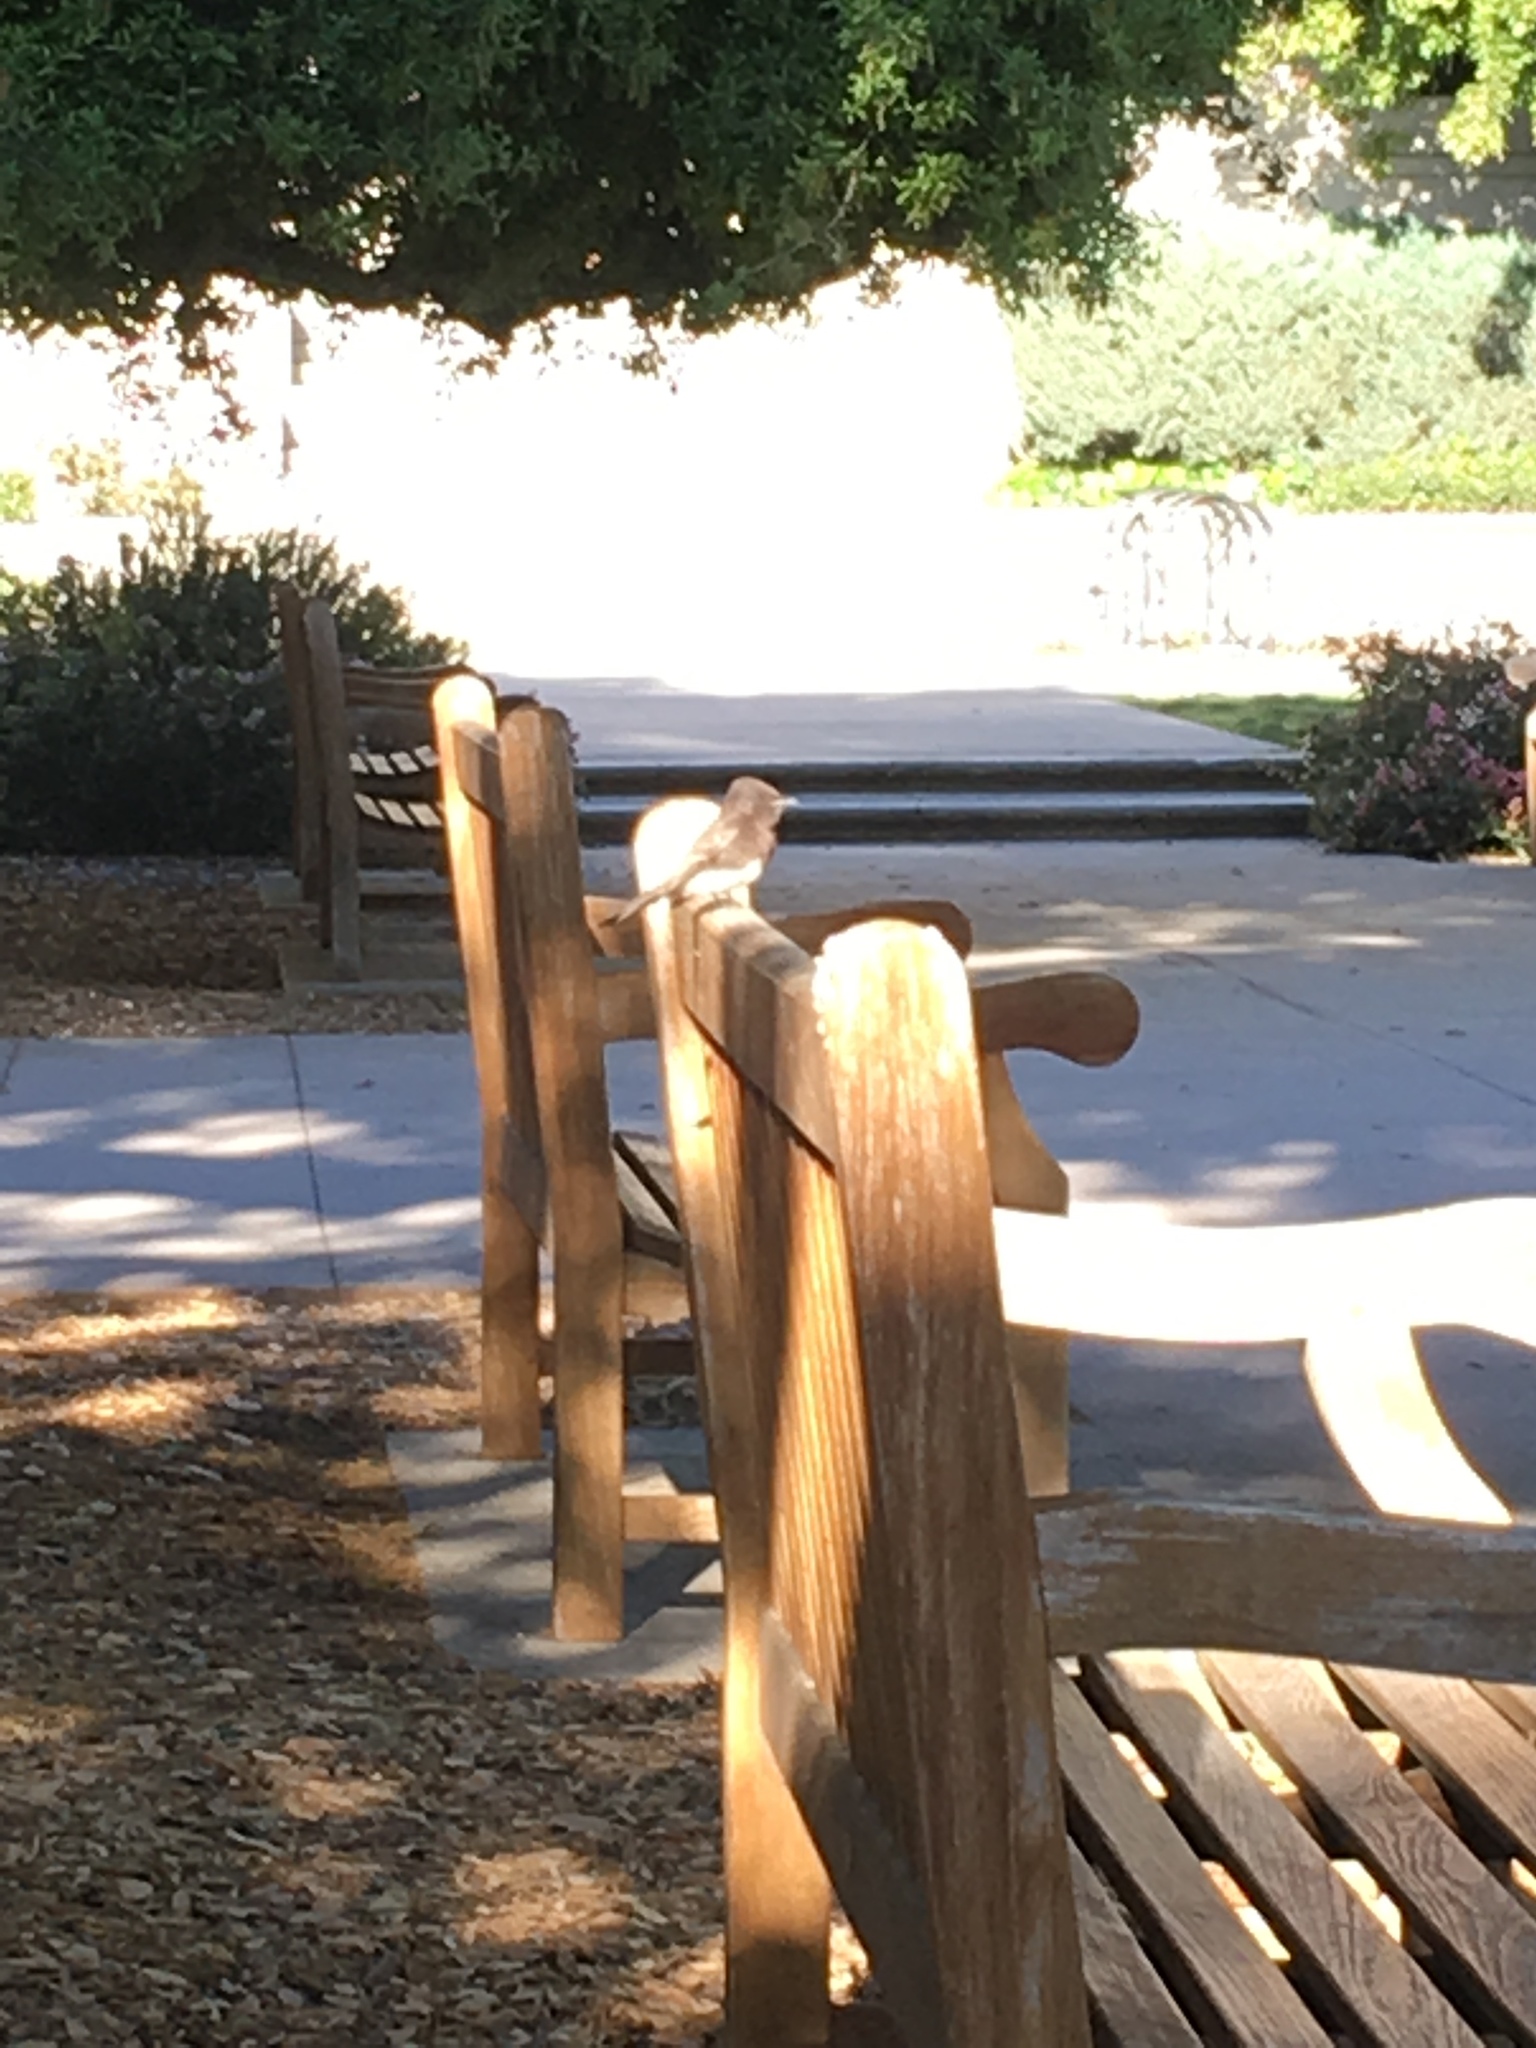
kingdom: Animalia
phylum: Chordata
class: Aves
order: Passeriformes
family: Tyrannidae
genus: Sayornis
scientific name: Sayornis nigricans
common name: Black phoebe
